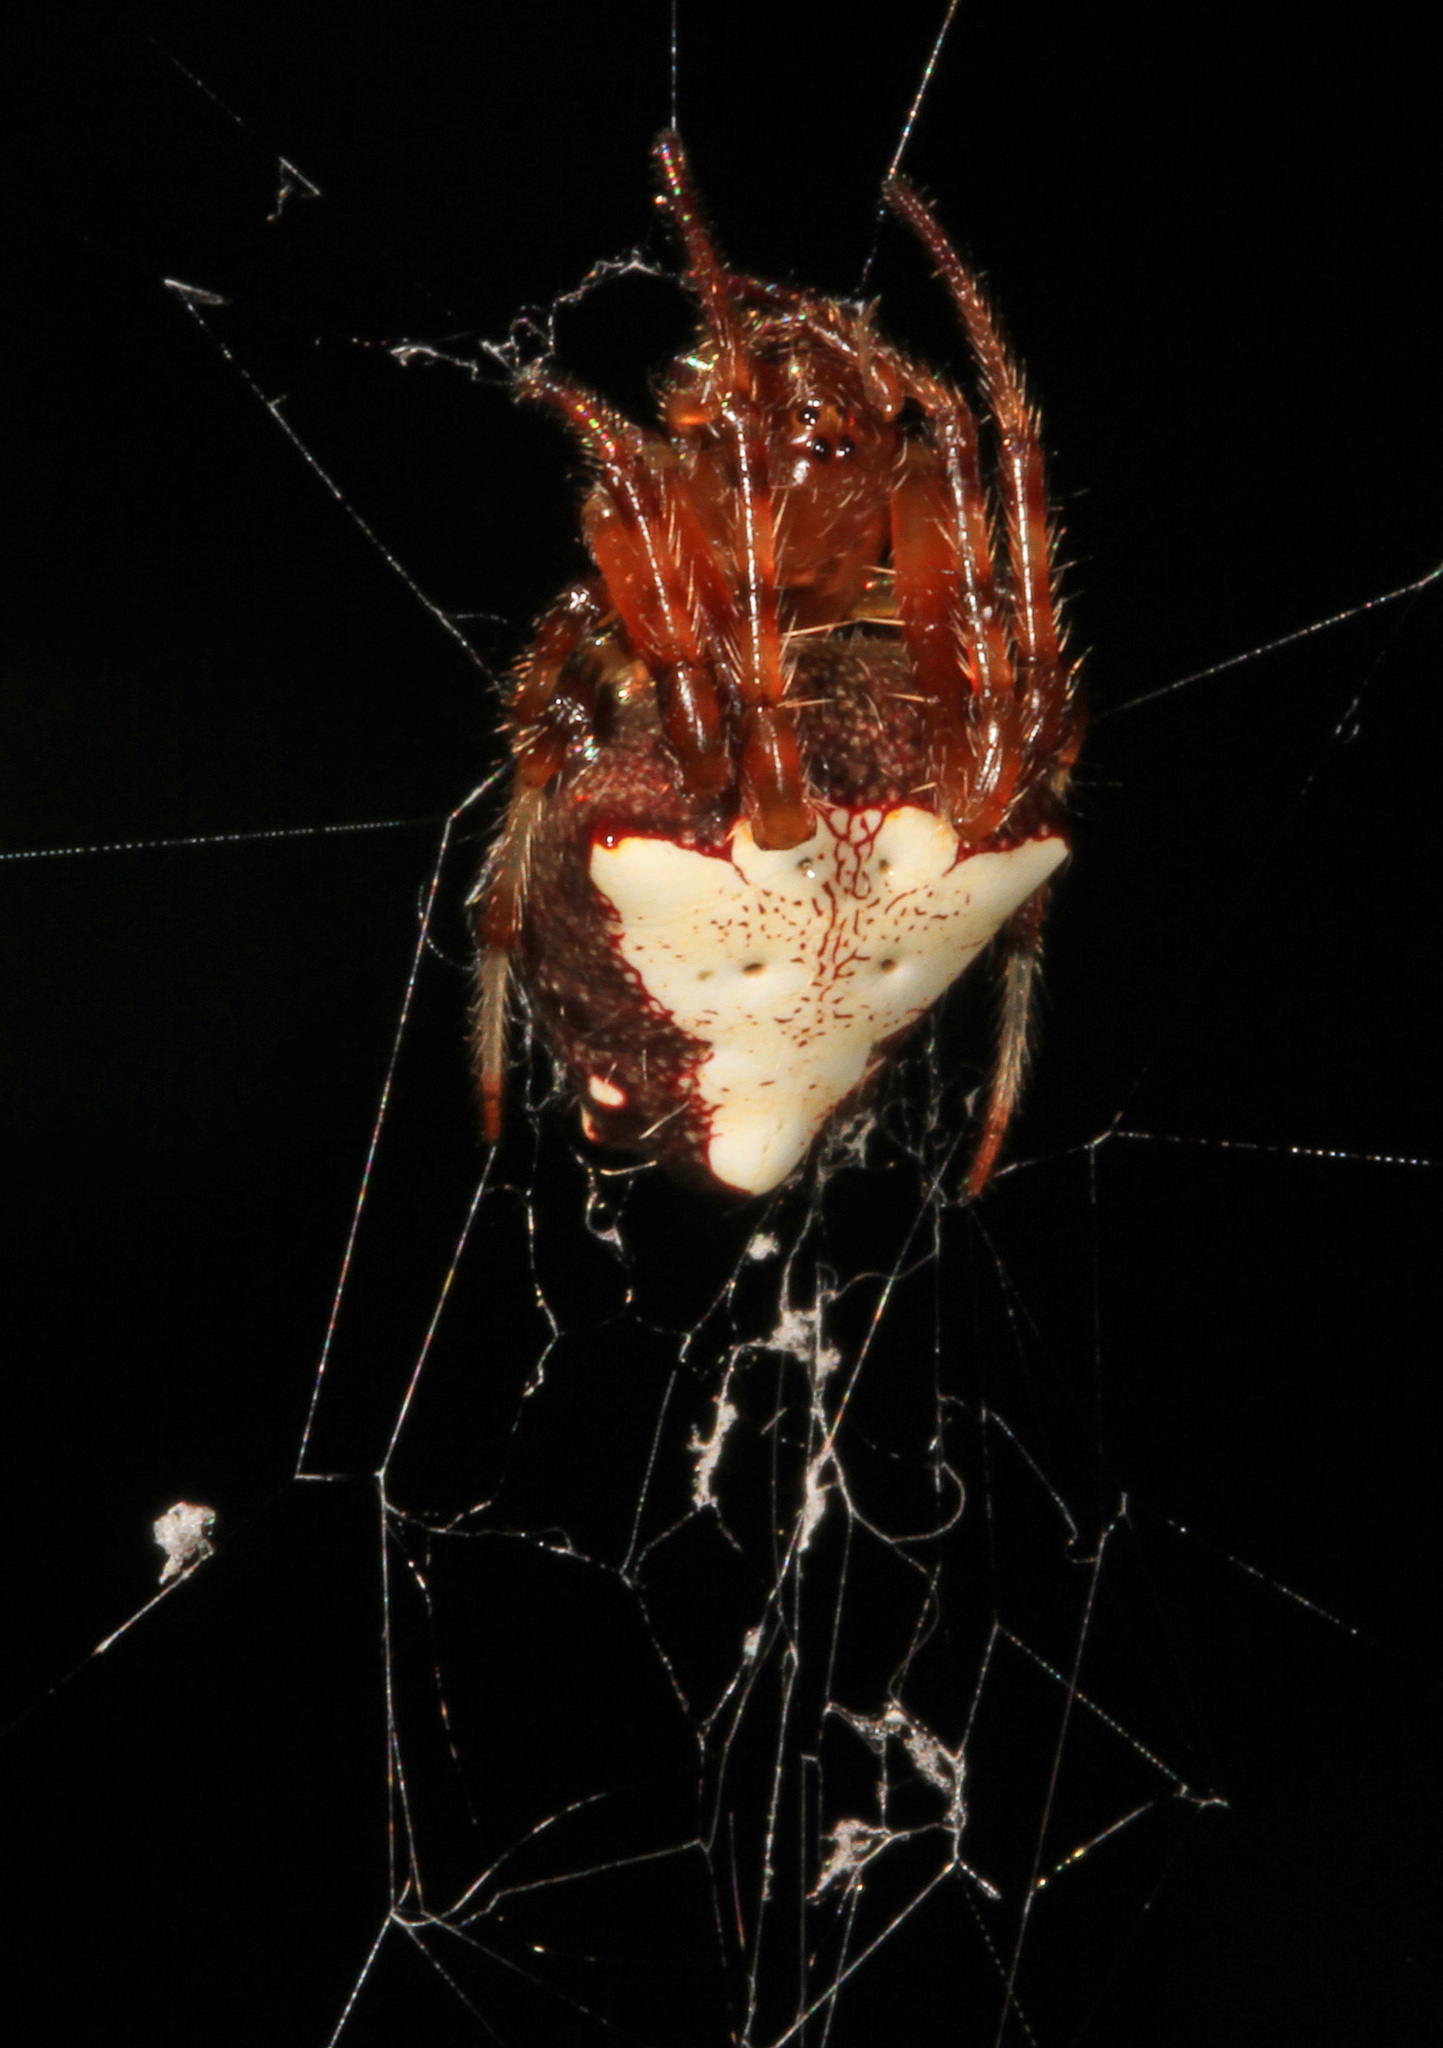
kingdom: Animalia
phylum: Arthropoda
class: Arachnida
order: Araneae
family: Araneidae
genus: Verrucosa
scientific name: Verrucosa arenata
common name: Orb weavers
